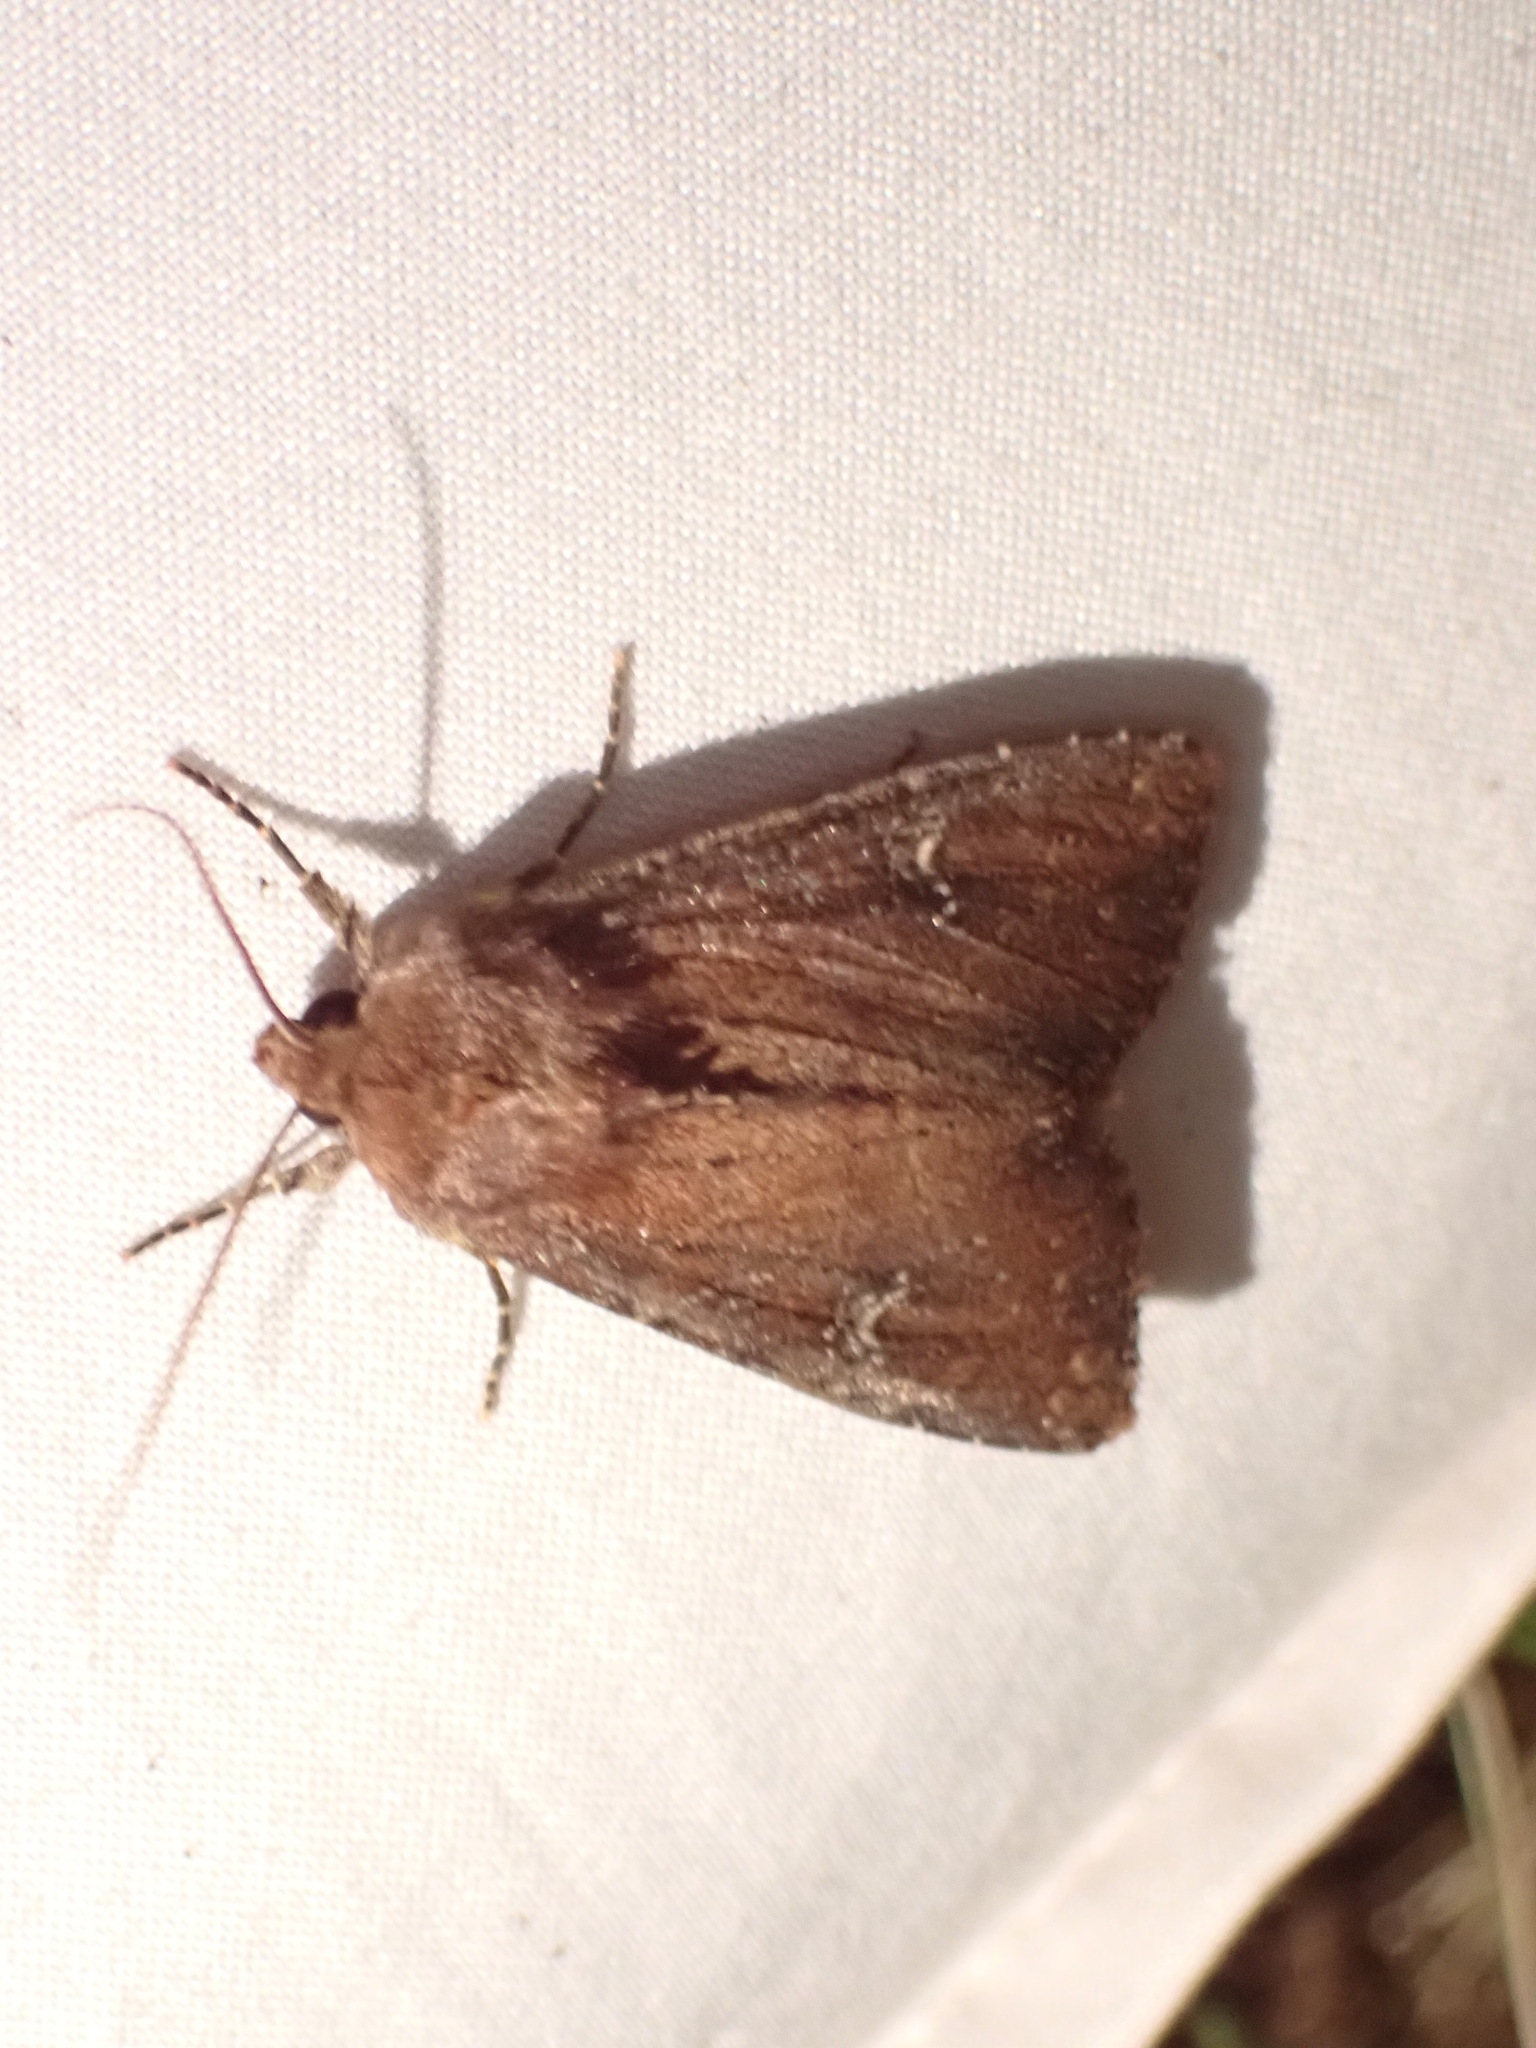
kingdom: Animalia
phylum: Arthropoda
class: Insecta
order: Lepidoptera
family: Noctuidae
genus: Apamea
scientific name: Apamea scoparia
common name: Faint-spotted quaker
